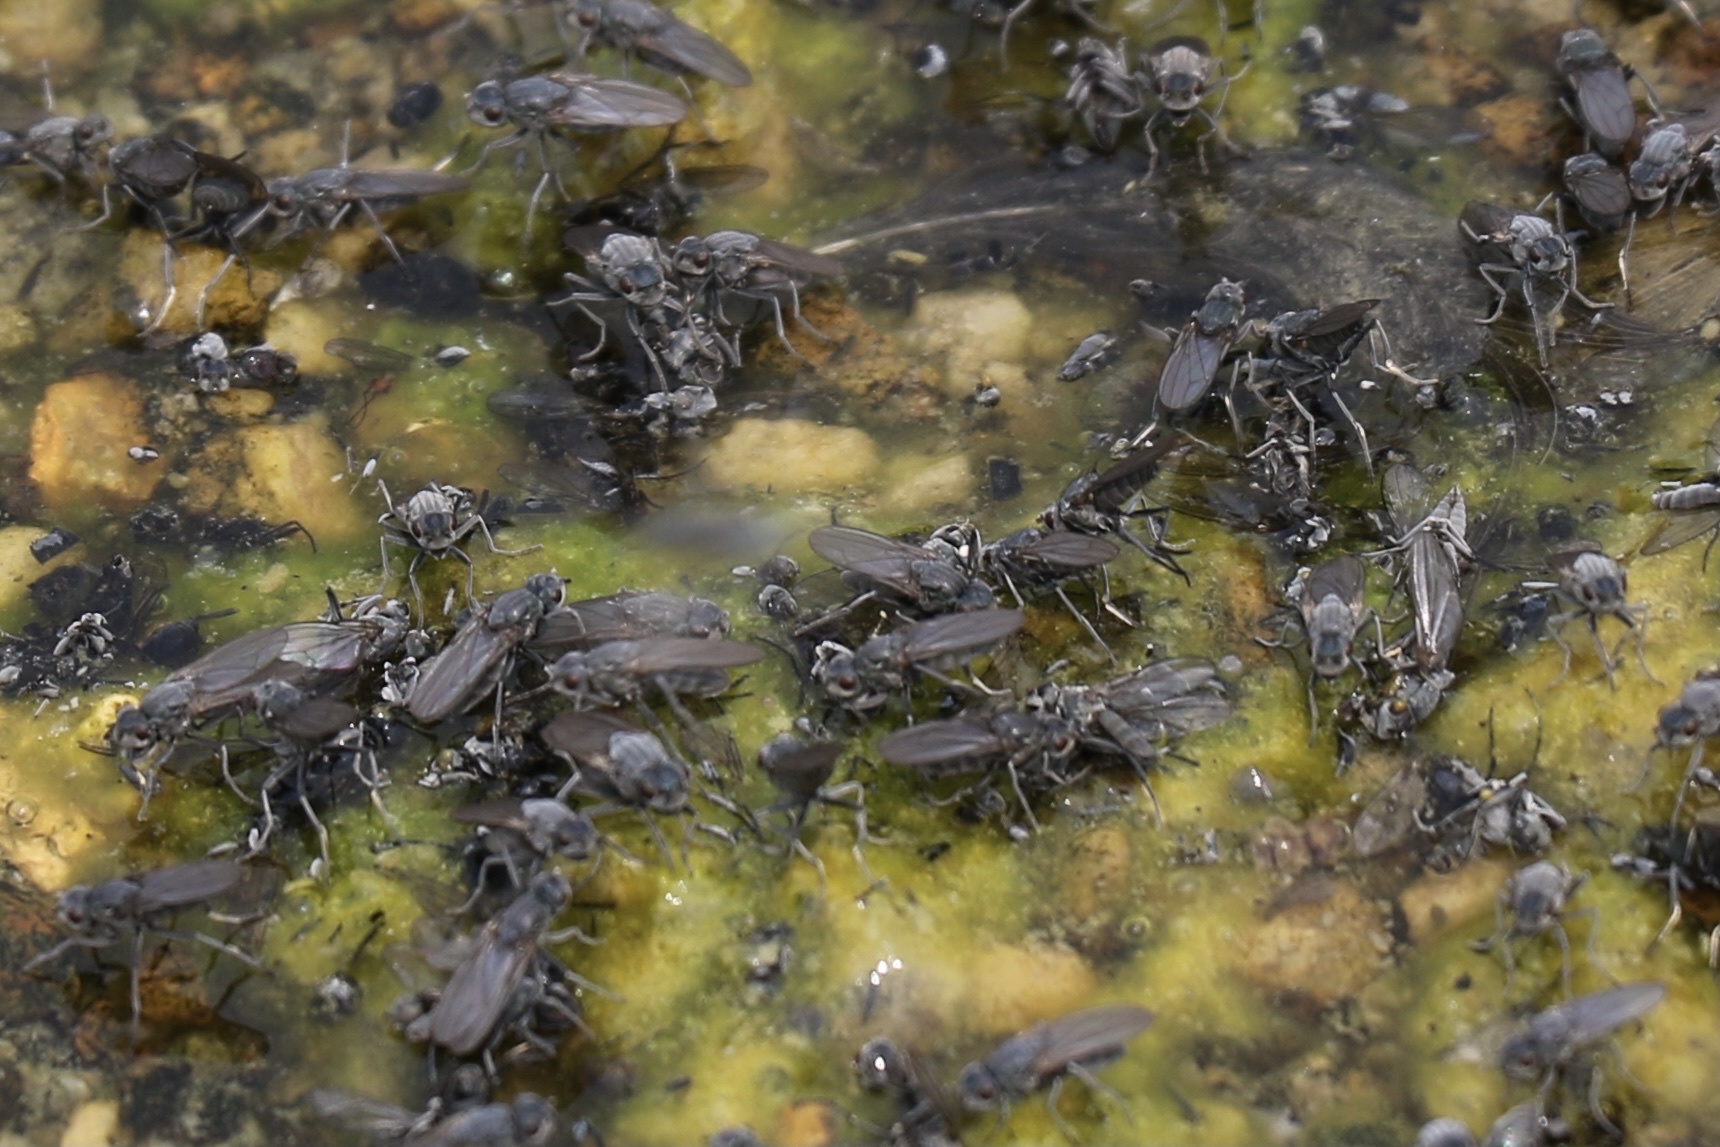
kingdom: Animalia
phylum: Arthropoda
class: Insecta
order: Diptera
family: Ephydridae
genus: Cirrula
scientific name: Cirrula hians
